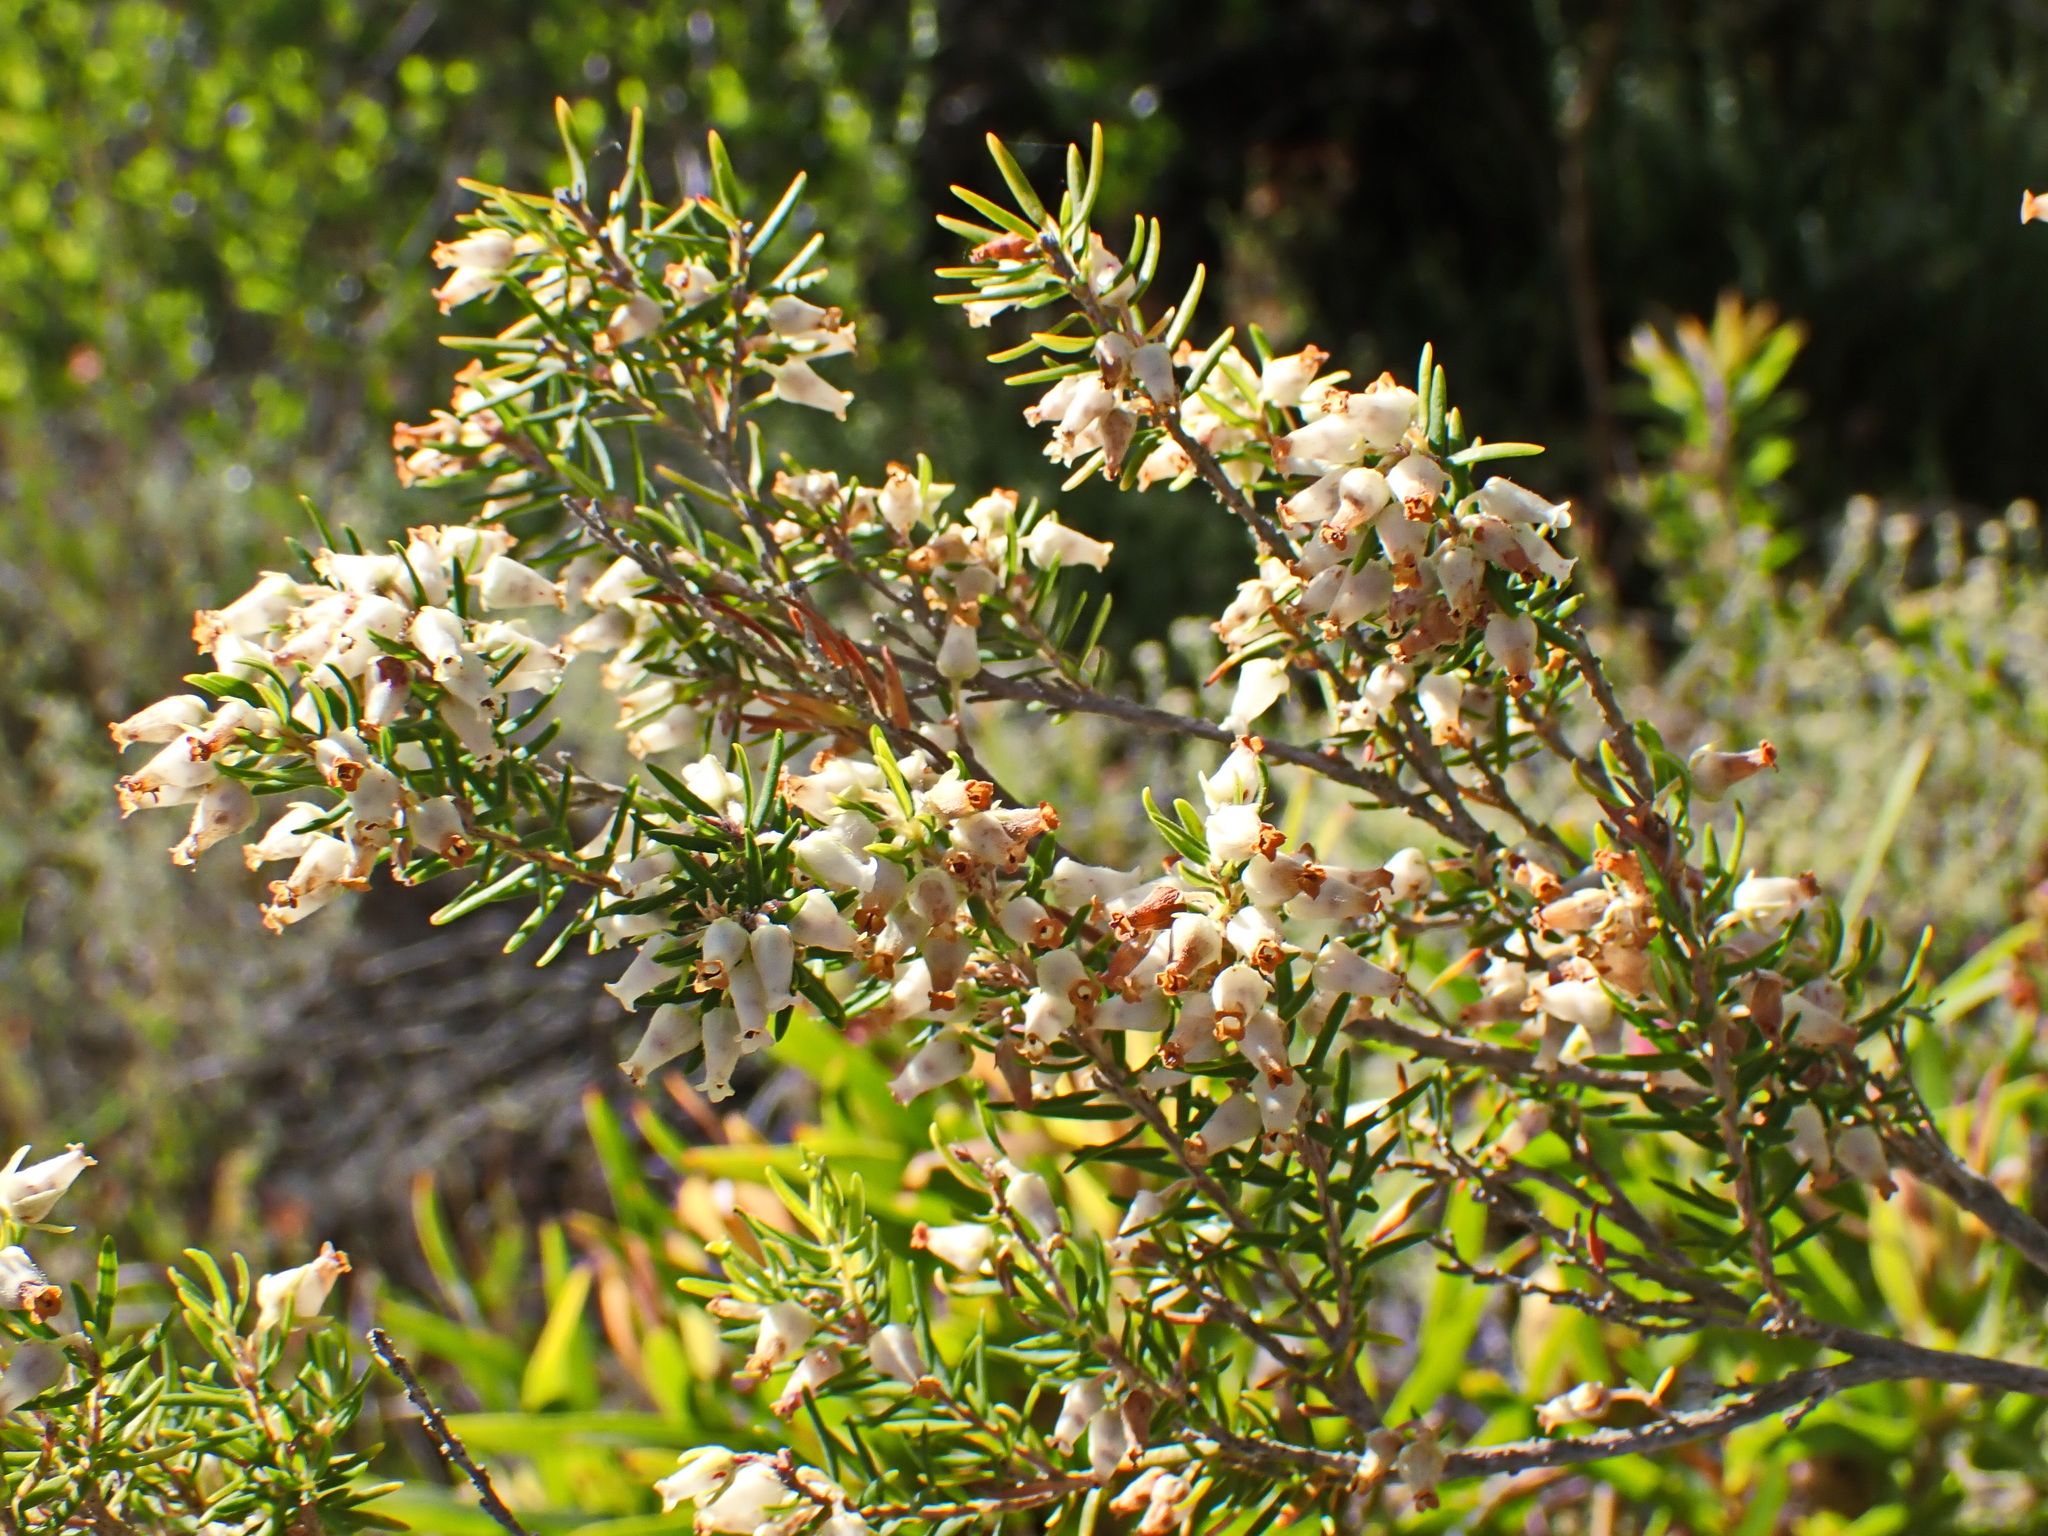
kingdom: Plantae
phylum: Tracheophyta
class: Magnoliopsida
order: Ericales
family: Ericaceae
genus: Erica
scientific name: Erica caffra
